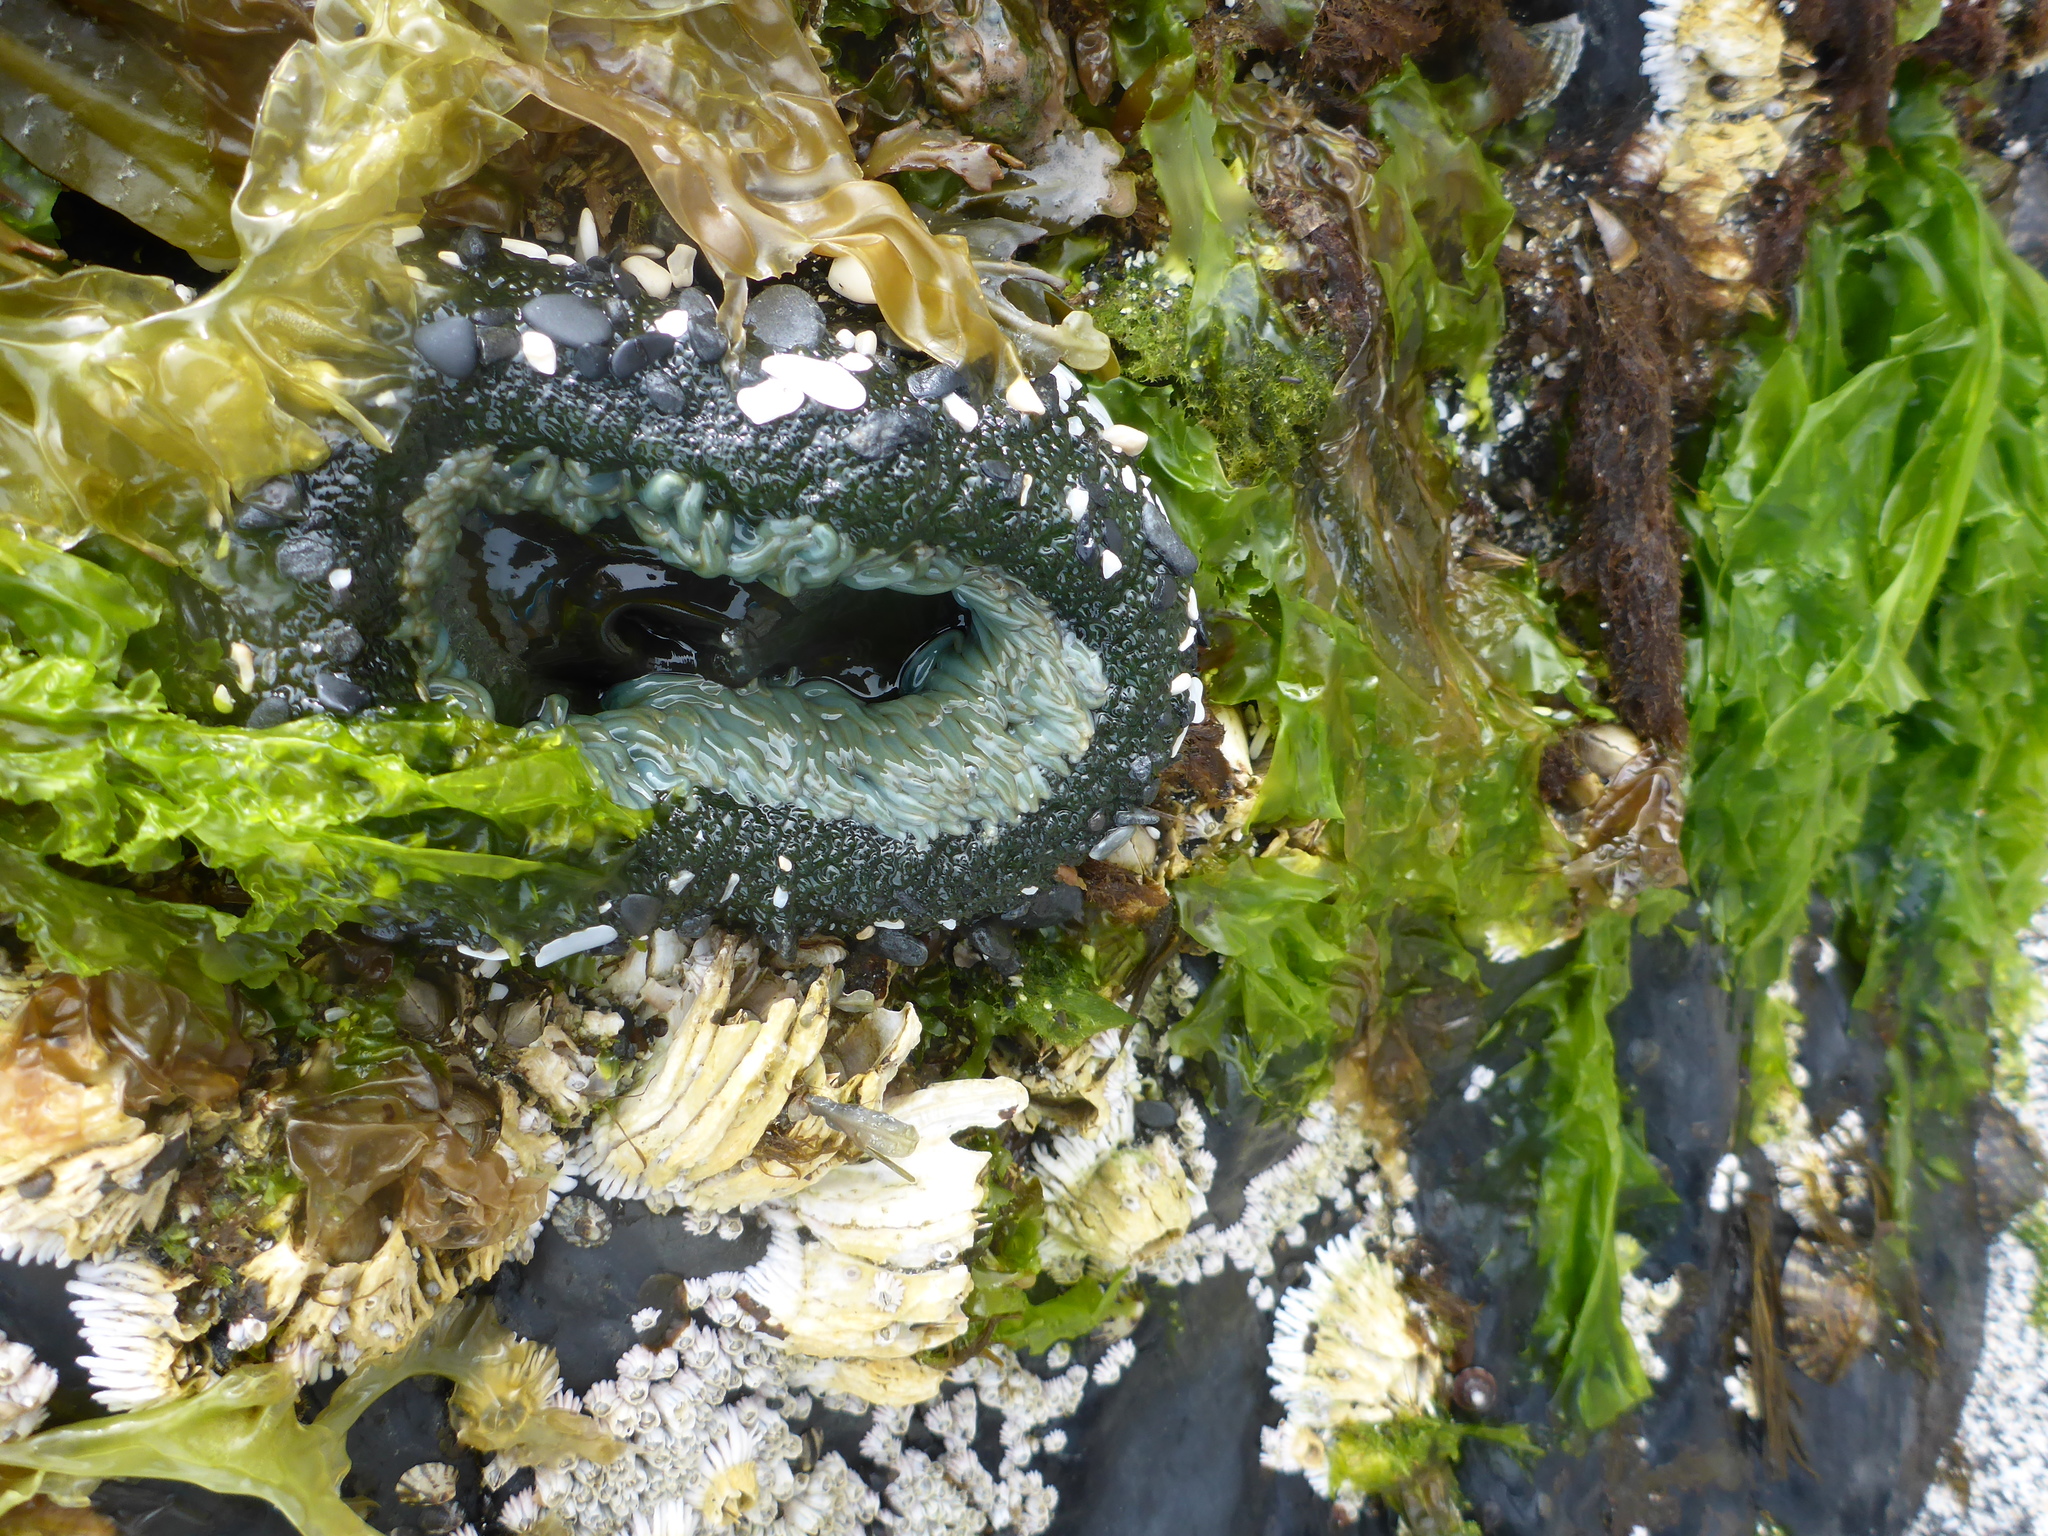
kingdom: Animalia
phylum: Cnidaria
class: Anthozoa
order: Actiniaria
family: Actiniidae
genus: Anthopleura
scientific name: Anthopleura xanthogrammica
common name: Giant green anemone
